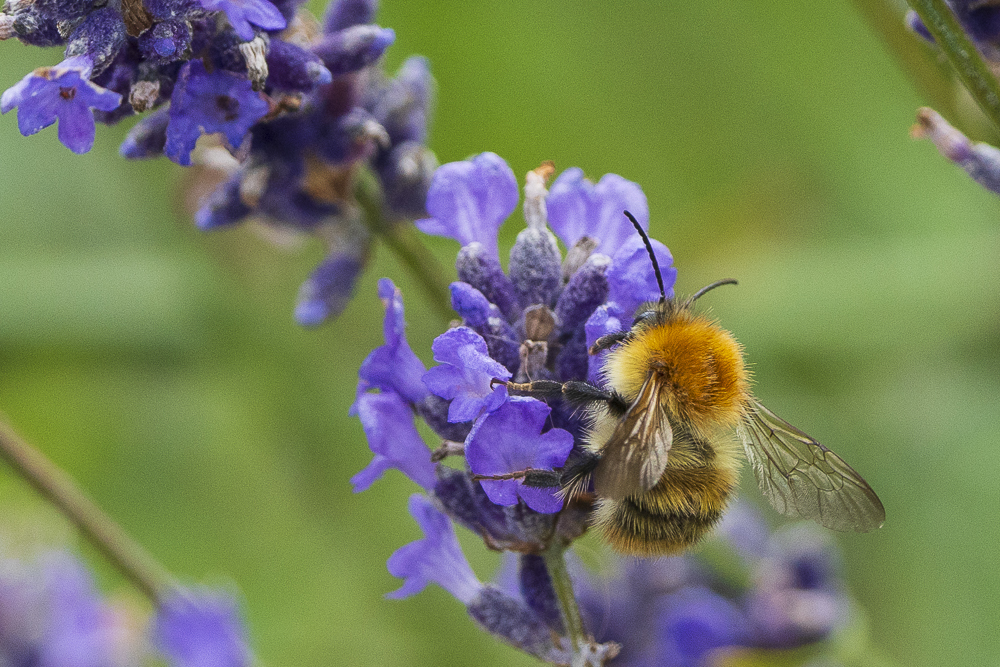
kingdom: Animalia
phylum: Arthropoda
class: Insecta
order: Hymenoptera
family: Apidae
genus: Bombus
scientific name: Bombus pascuorum
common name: Common carder bee
